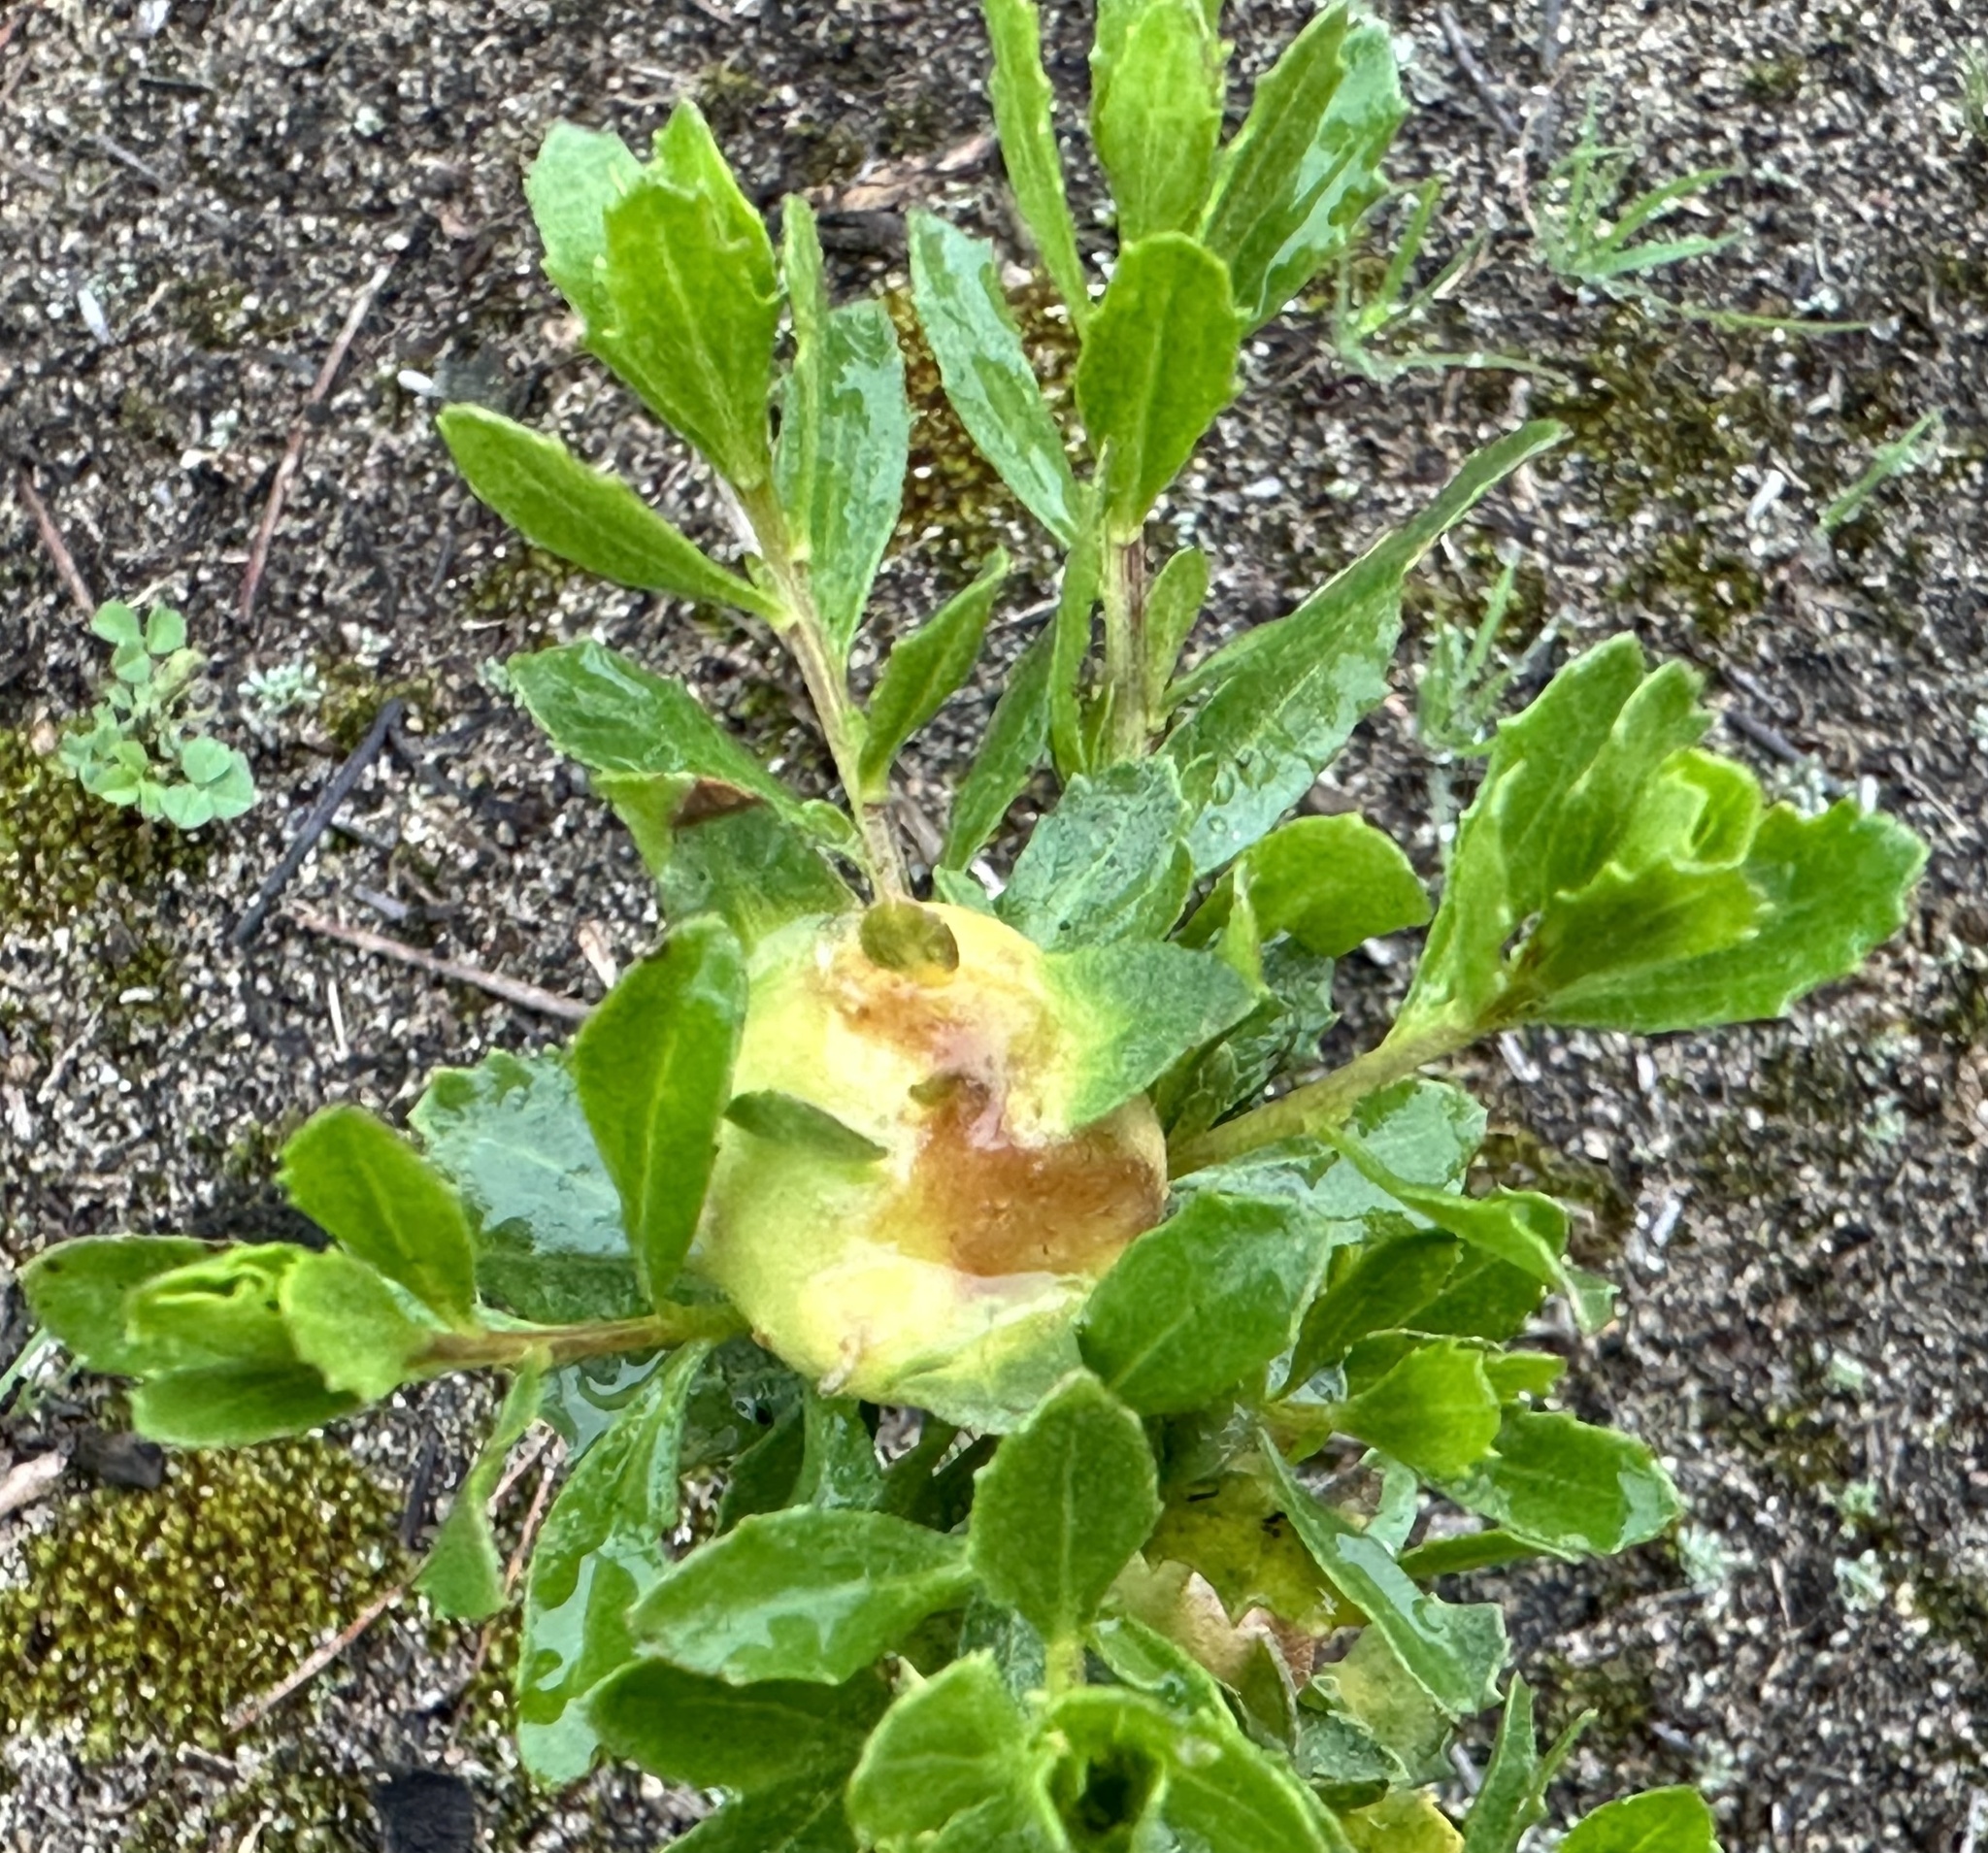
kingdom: Animalia
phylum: Arthropoda
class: Insecta
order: Diptera
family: Cecidomyiidae
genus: Rhopalomyia
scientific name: Rhopalomyia californica
